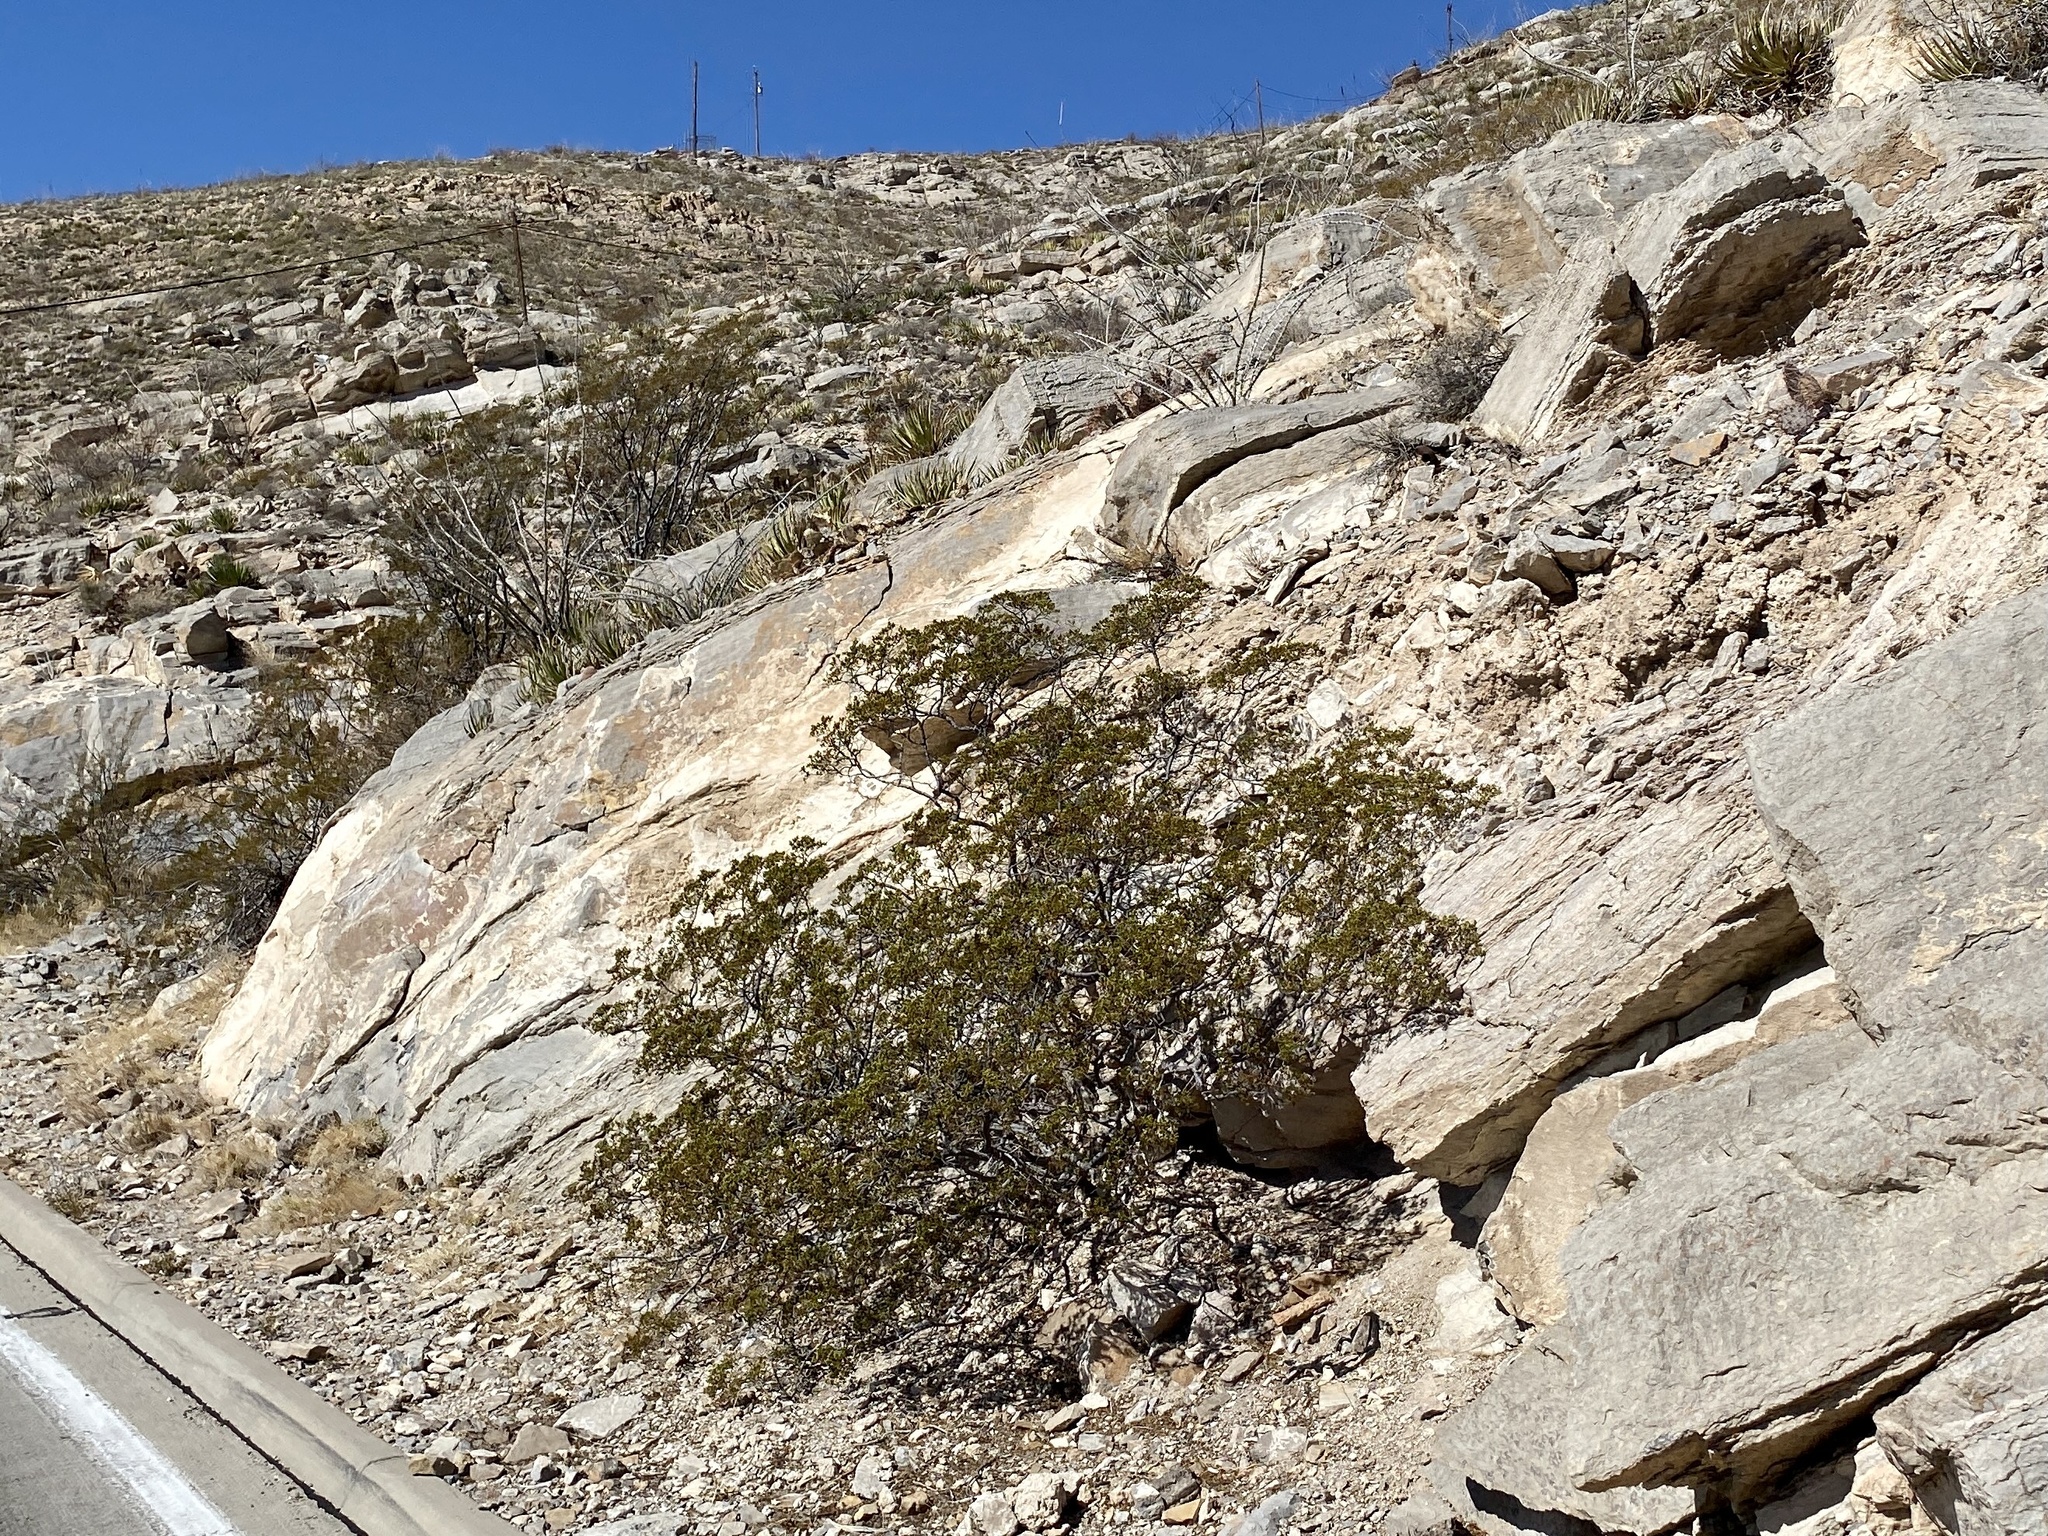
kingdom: Plantae
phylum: Tracheophyta
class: Magnoliopsida
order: Zygophyllales
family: Zygophyllaceae
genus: Larrea
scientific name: Larrea tridentata
